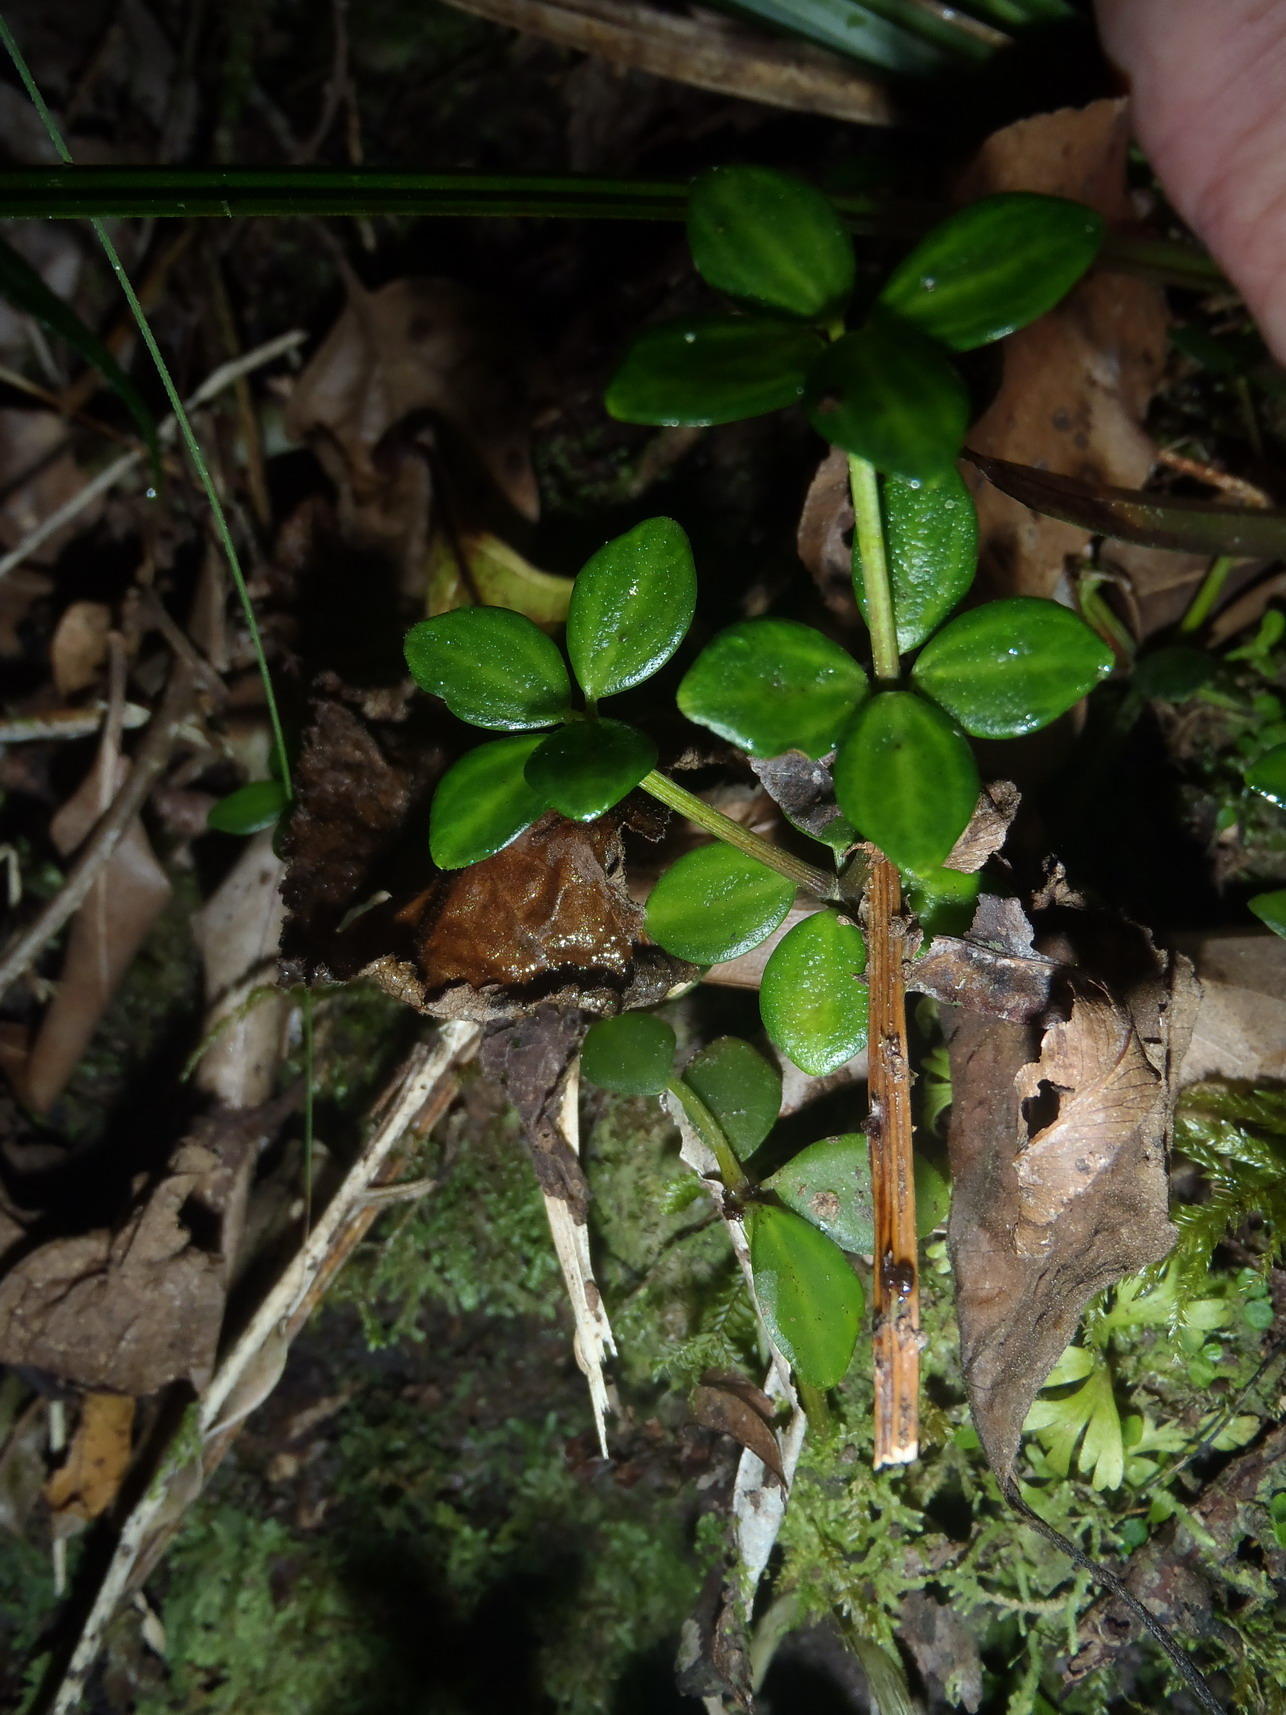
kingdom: Plantae
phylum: Tracheophyta
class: Magnoliopsida
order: Piperales
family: Piperaceae
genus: Peperomia
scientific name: Peperomia tetraphylla
